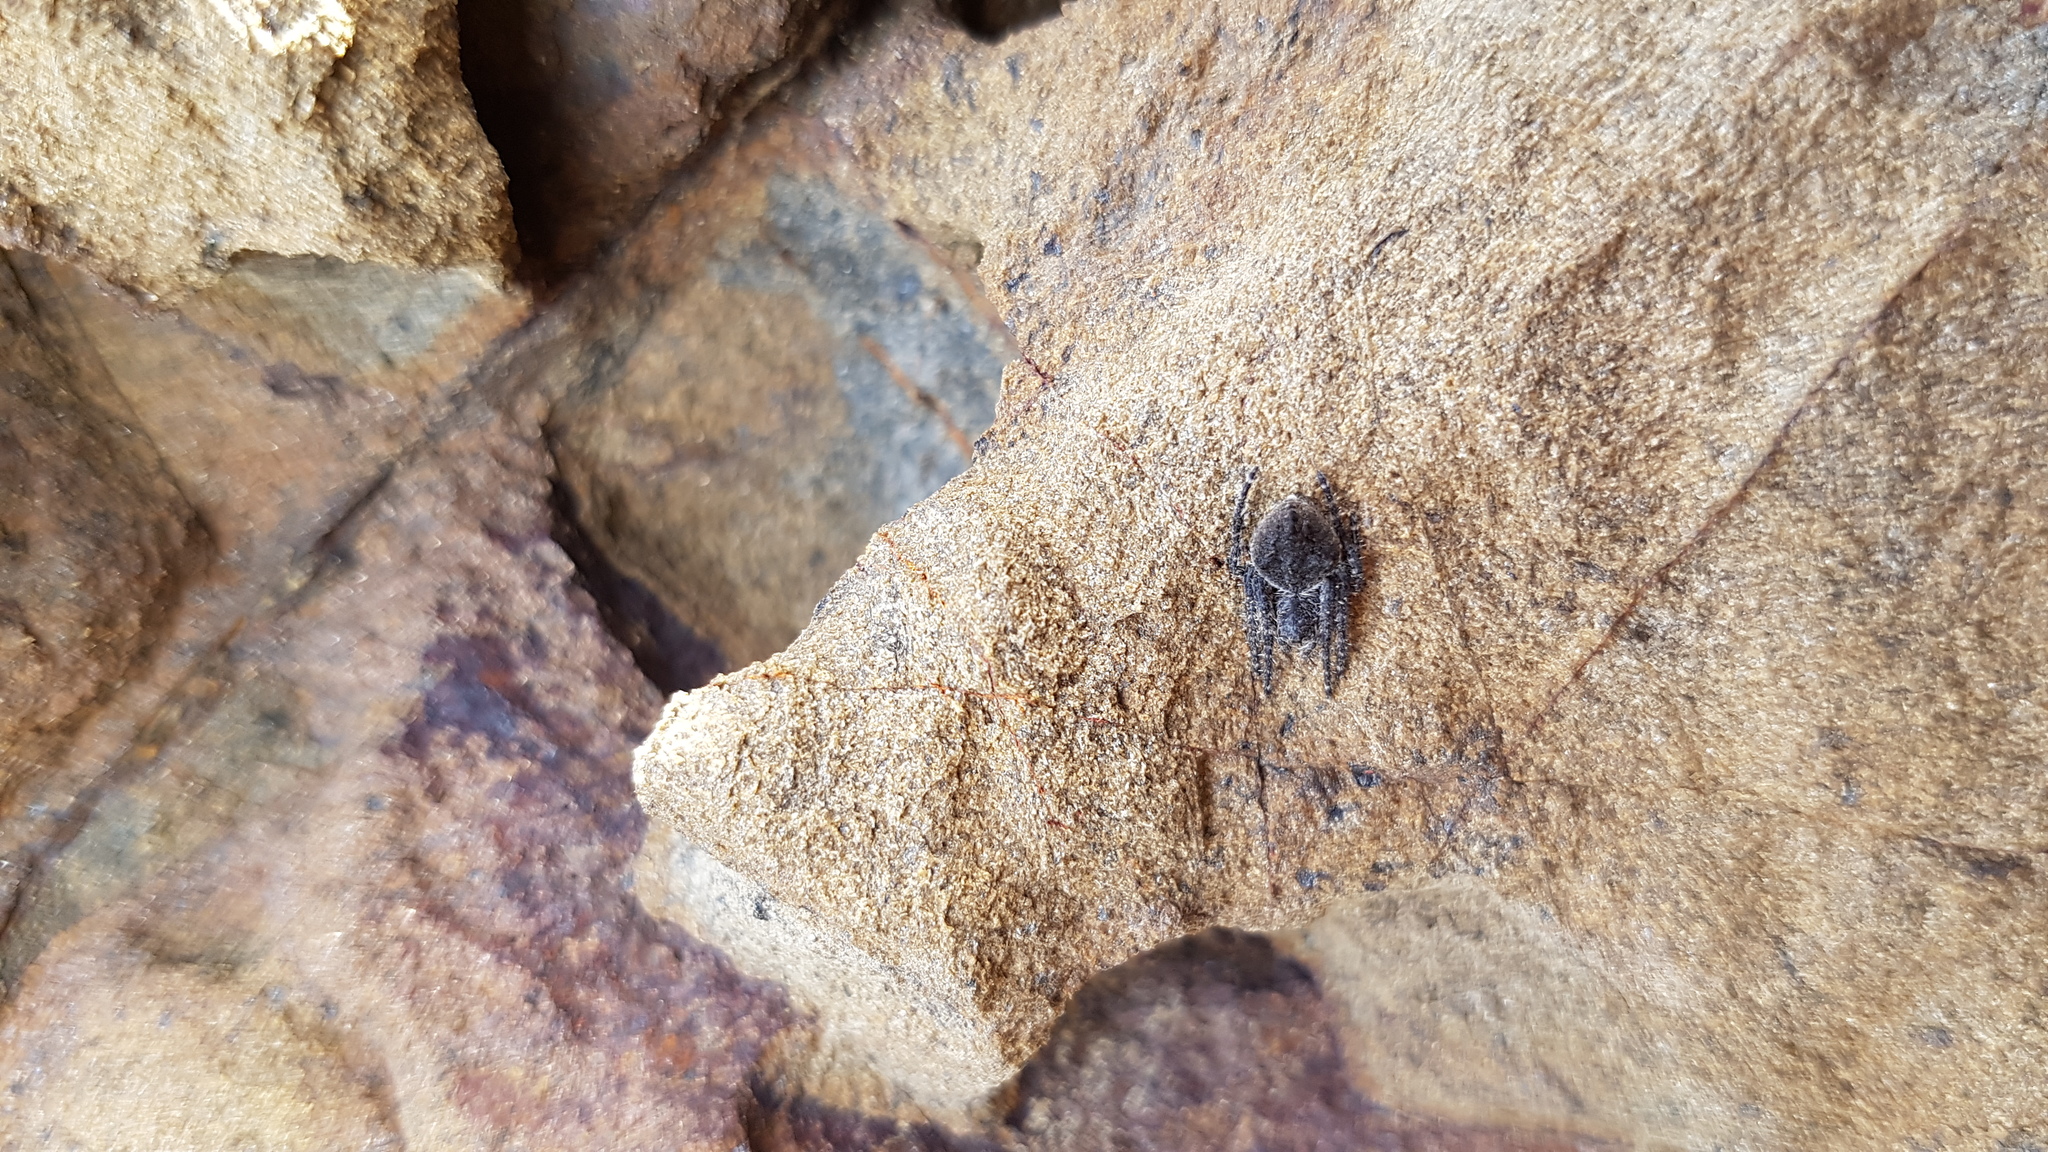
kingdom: Animalia
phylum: Arthropoda
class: Arachnida
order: Araneae
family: Araneidae
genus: Eriophora
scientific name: Eriophora pustulosa
